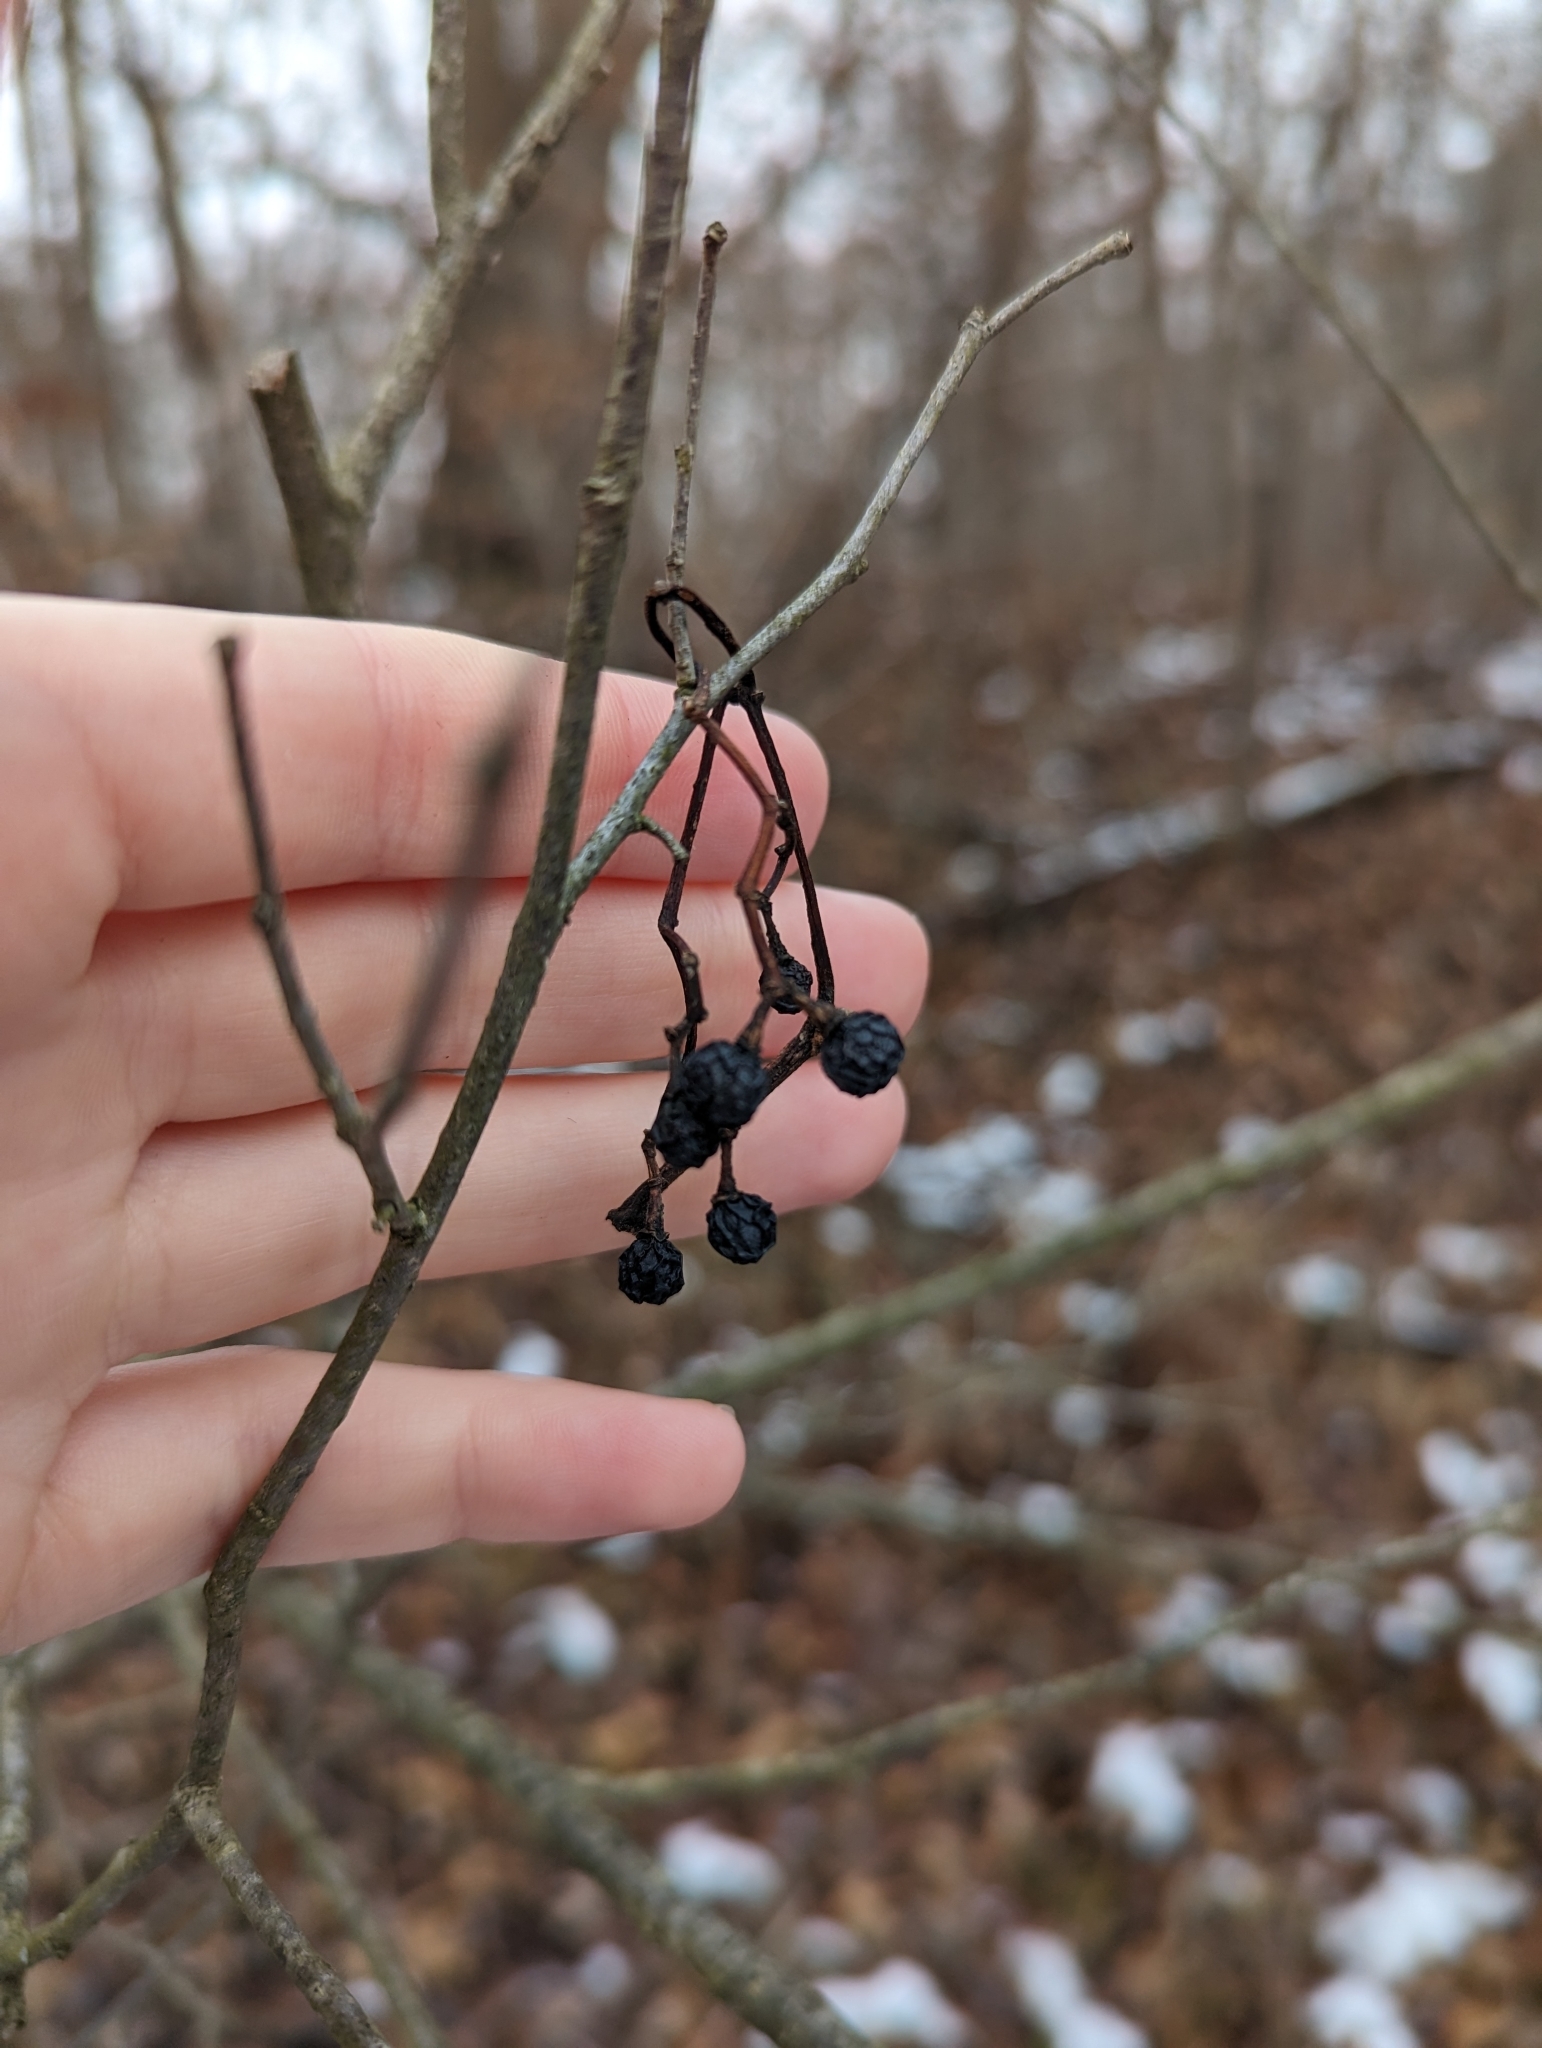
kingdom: Plantae
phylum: Tracheophyta
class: Magnoliopsida
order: Vitales
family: Vitaceae
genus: Parthenocissus
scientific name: Parthenocissus quinquefolia
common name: Virginia-creeper
